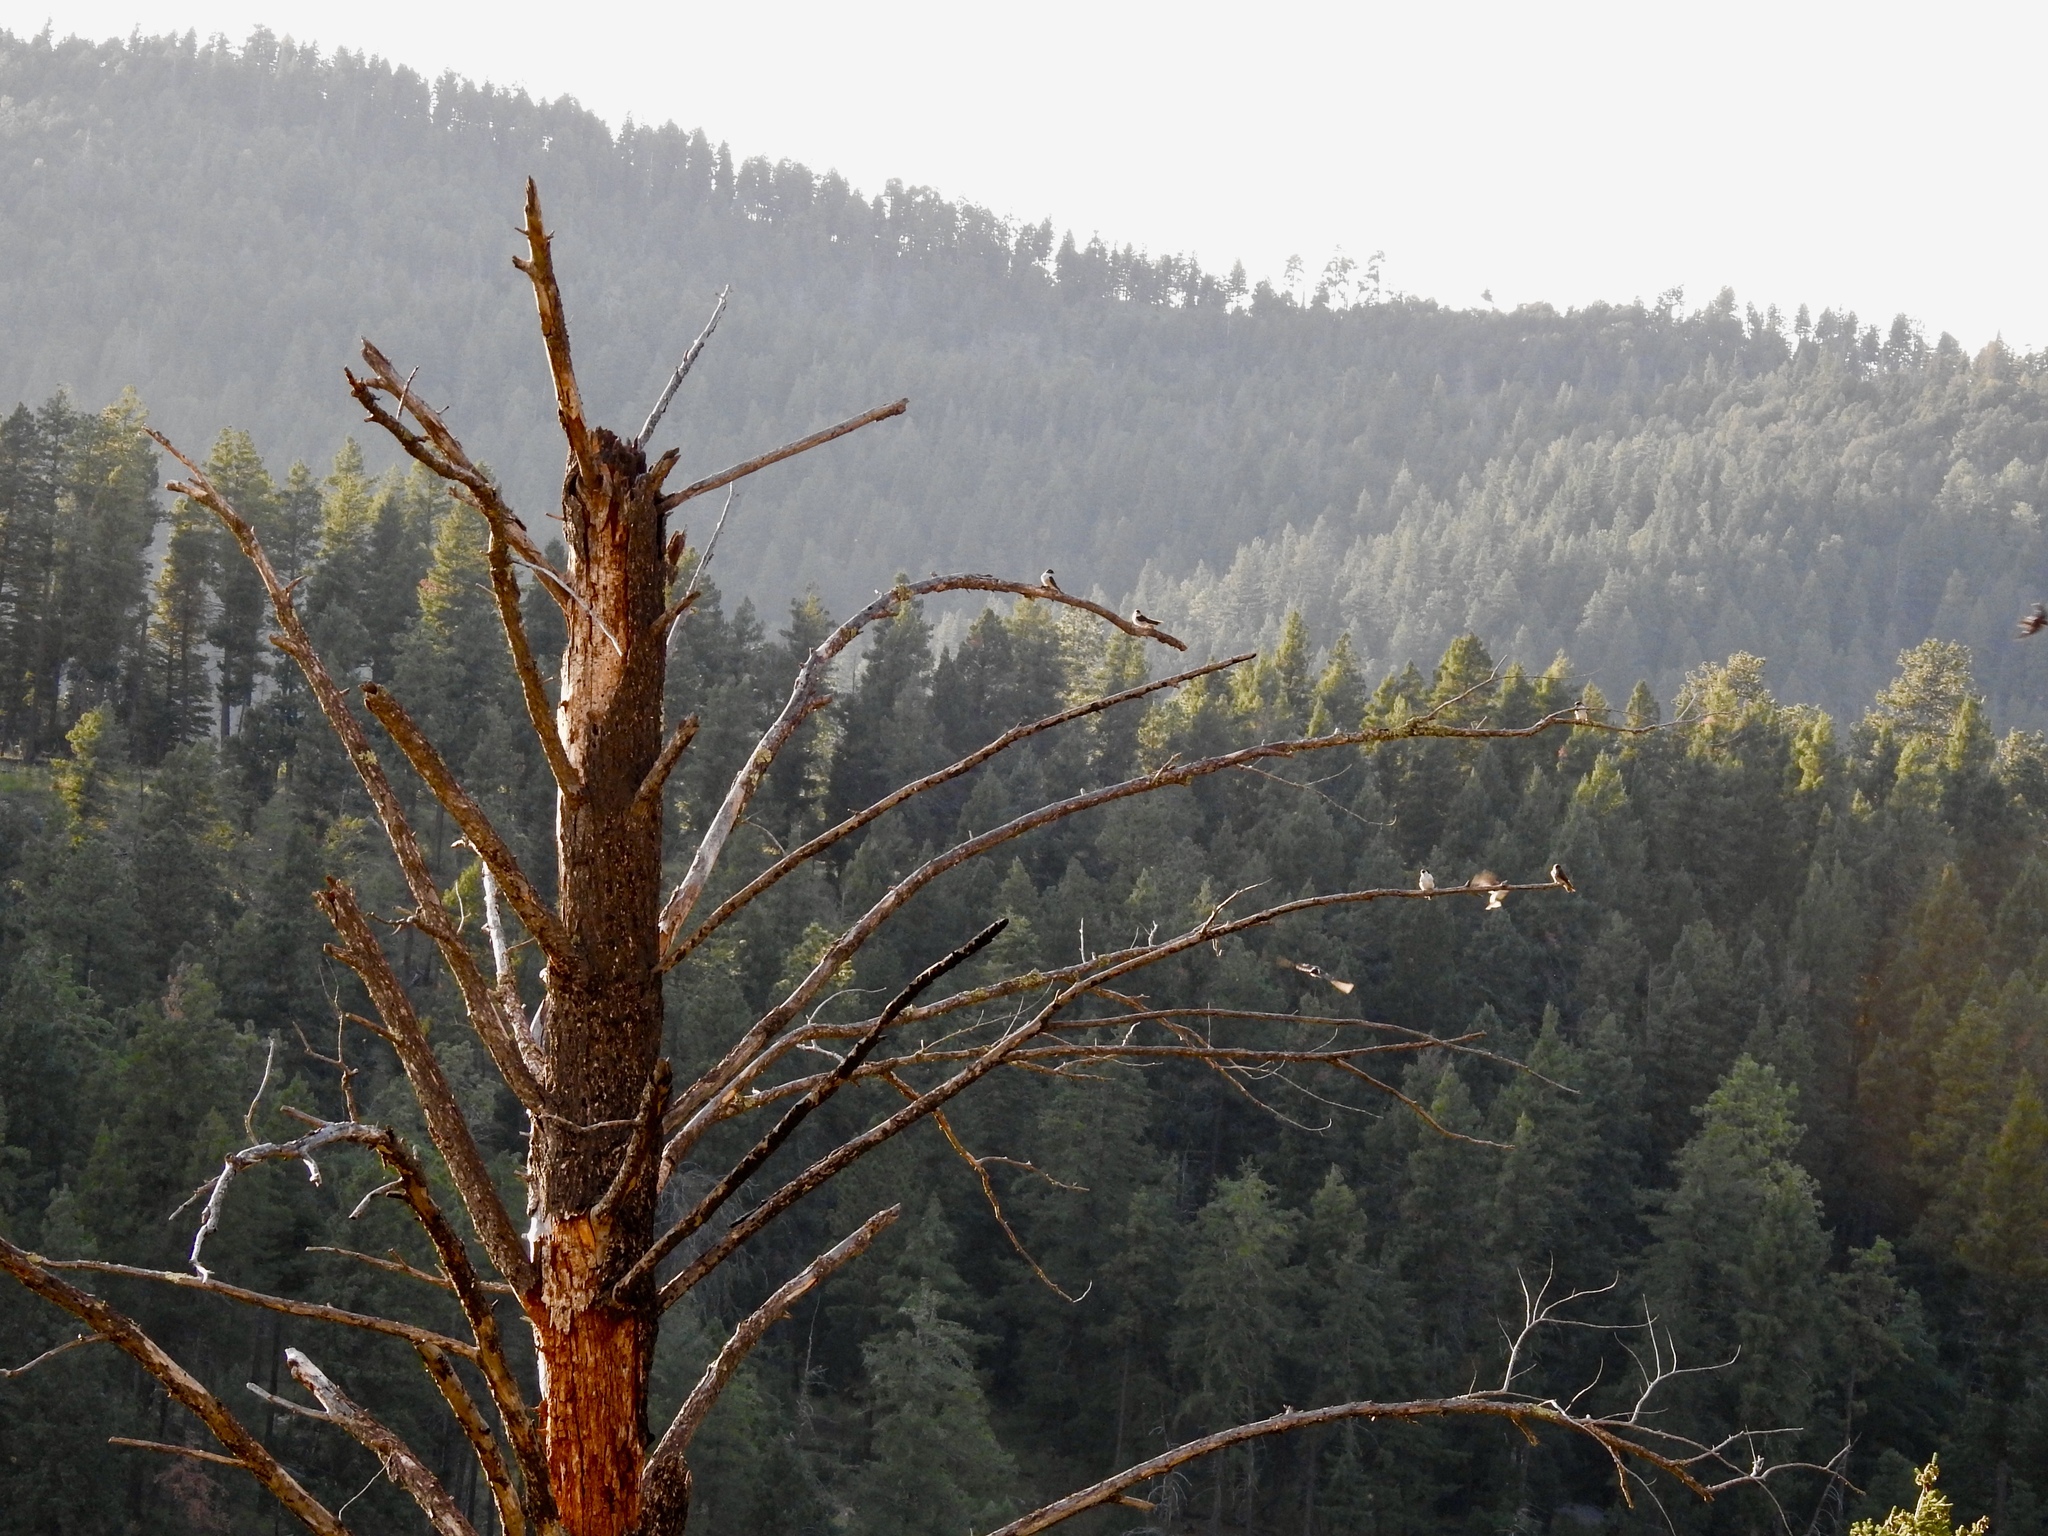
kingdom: Animalia
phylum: Chordata
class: Aves
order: Passeriformes
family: Hirundinidae
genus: Tachycineta
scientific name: Tachycineta thalassina
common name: Violet-green swallow
